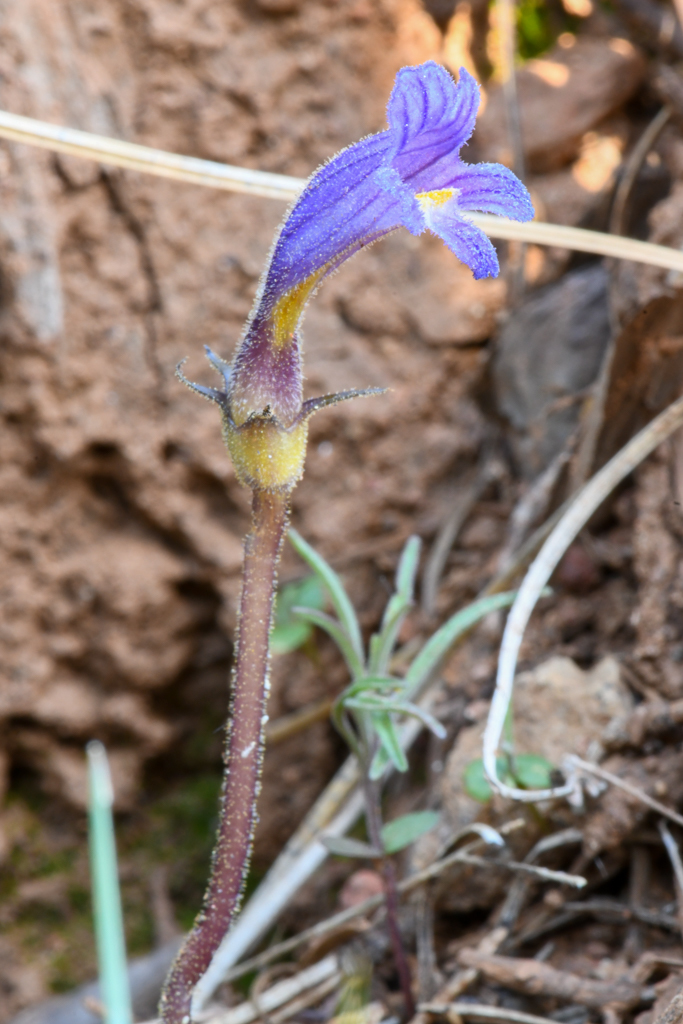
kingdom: Plantae
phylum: Tracheophyta
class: Magnoliopsida
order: Lamiales
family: Orobanchaceae
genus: Aphyllon
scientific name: Aphyllon uniflorum
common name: One-flowered broomrape
